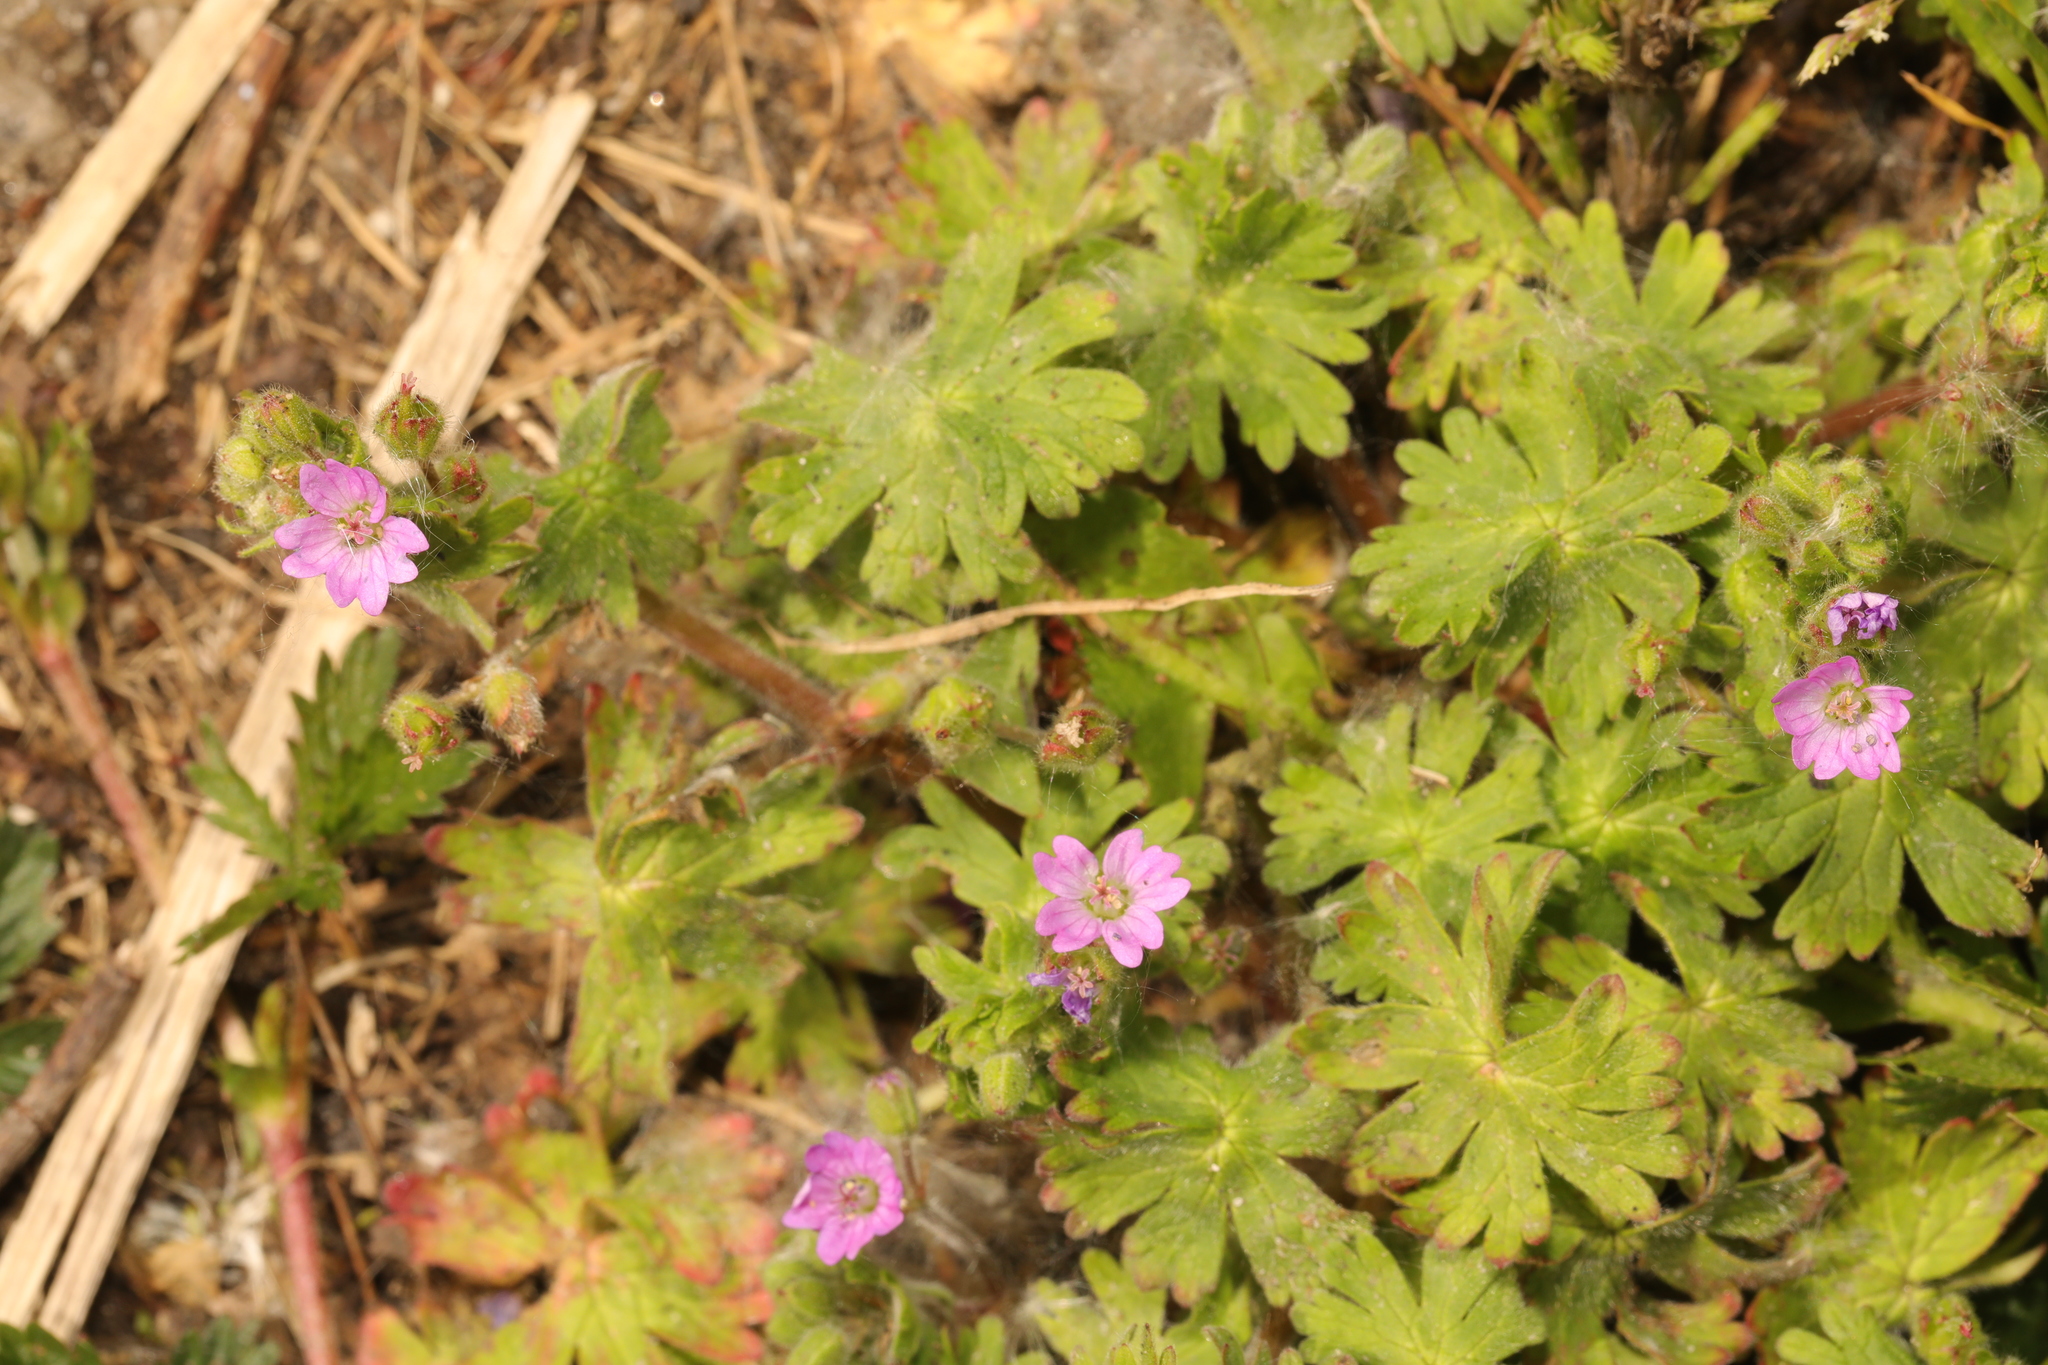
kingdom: Plantae
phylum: Tracheophyta
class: Magnoliopsida
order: Geraniales
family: Geraniaceae
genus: Geranium
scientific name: Geranium molle
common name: Dove's-foot crane's-bill
